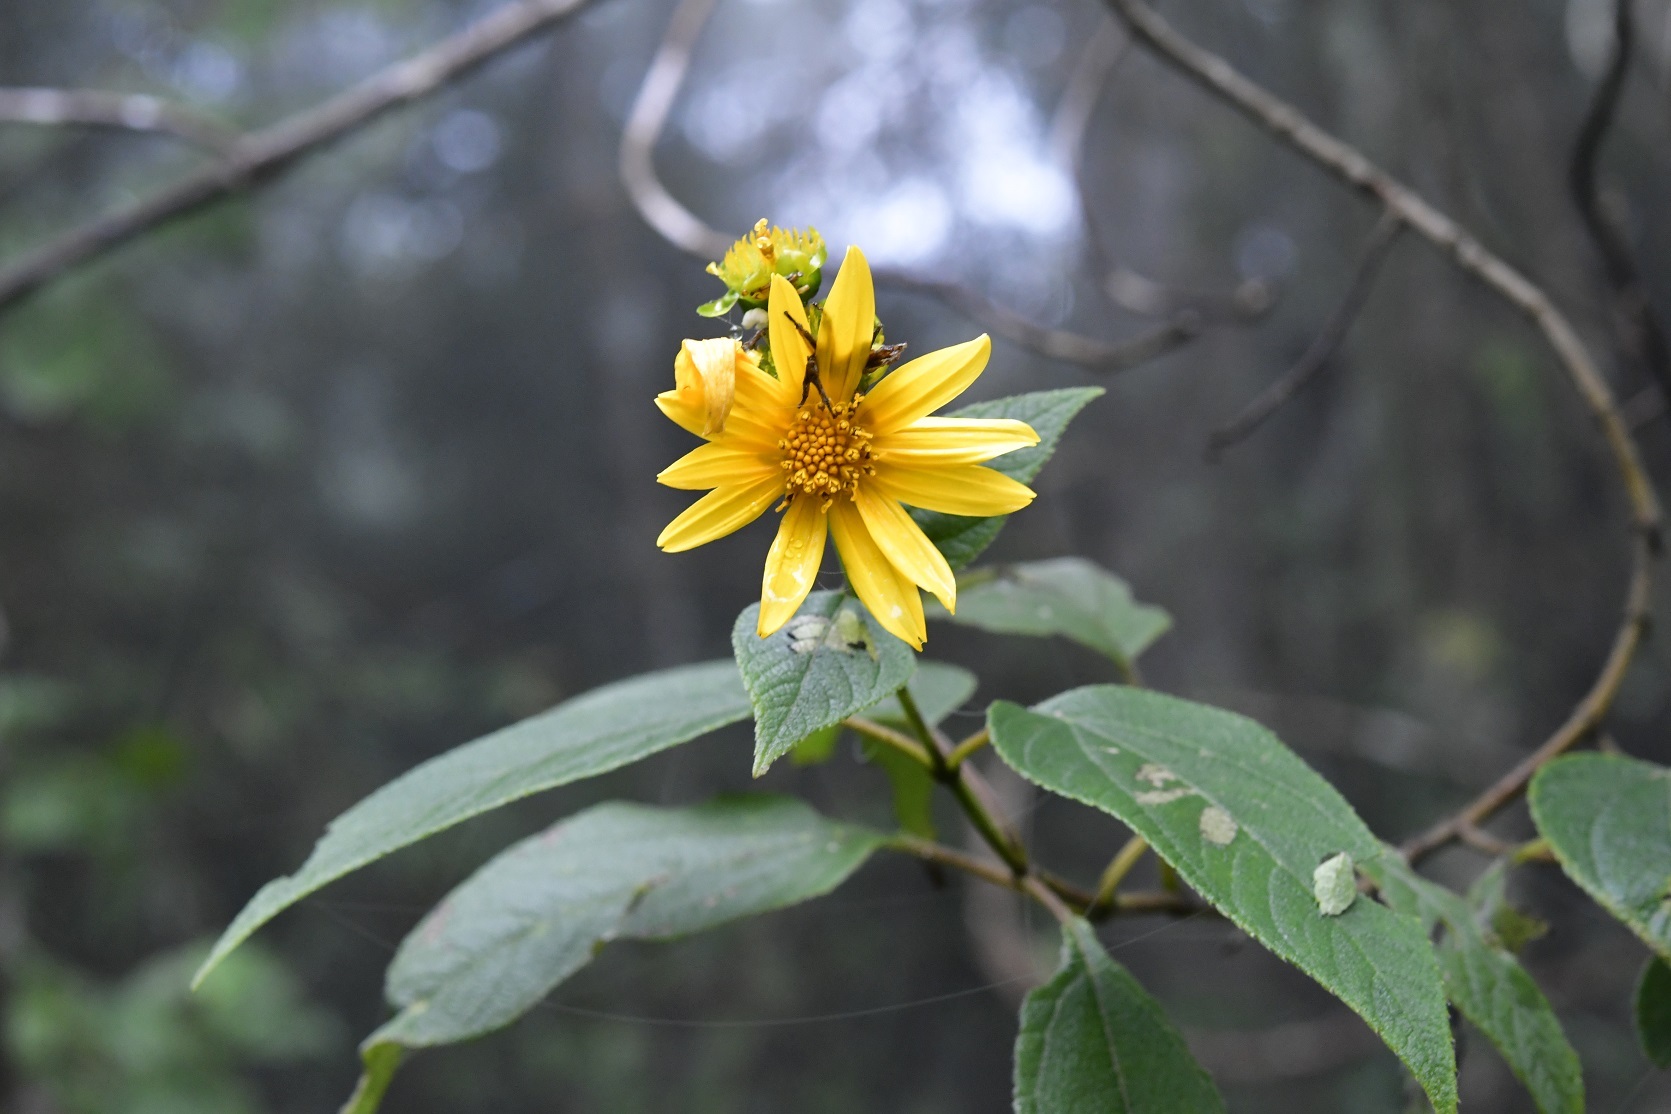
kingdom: Plantae
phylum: Tracheophyta
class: Magnoliopsida
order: Asterales
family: Asteraceae
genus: Lasianthaea
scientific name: Lasianthaea fruticosa
